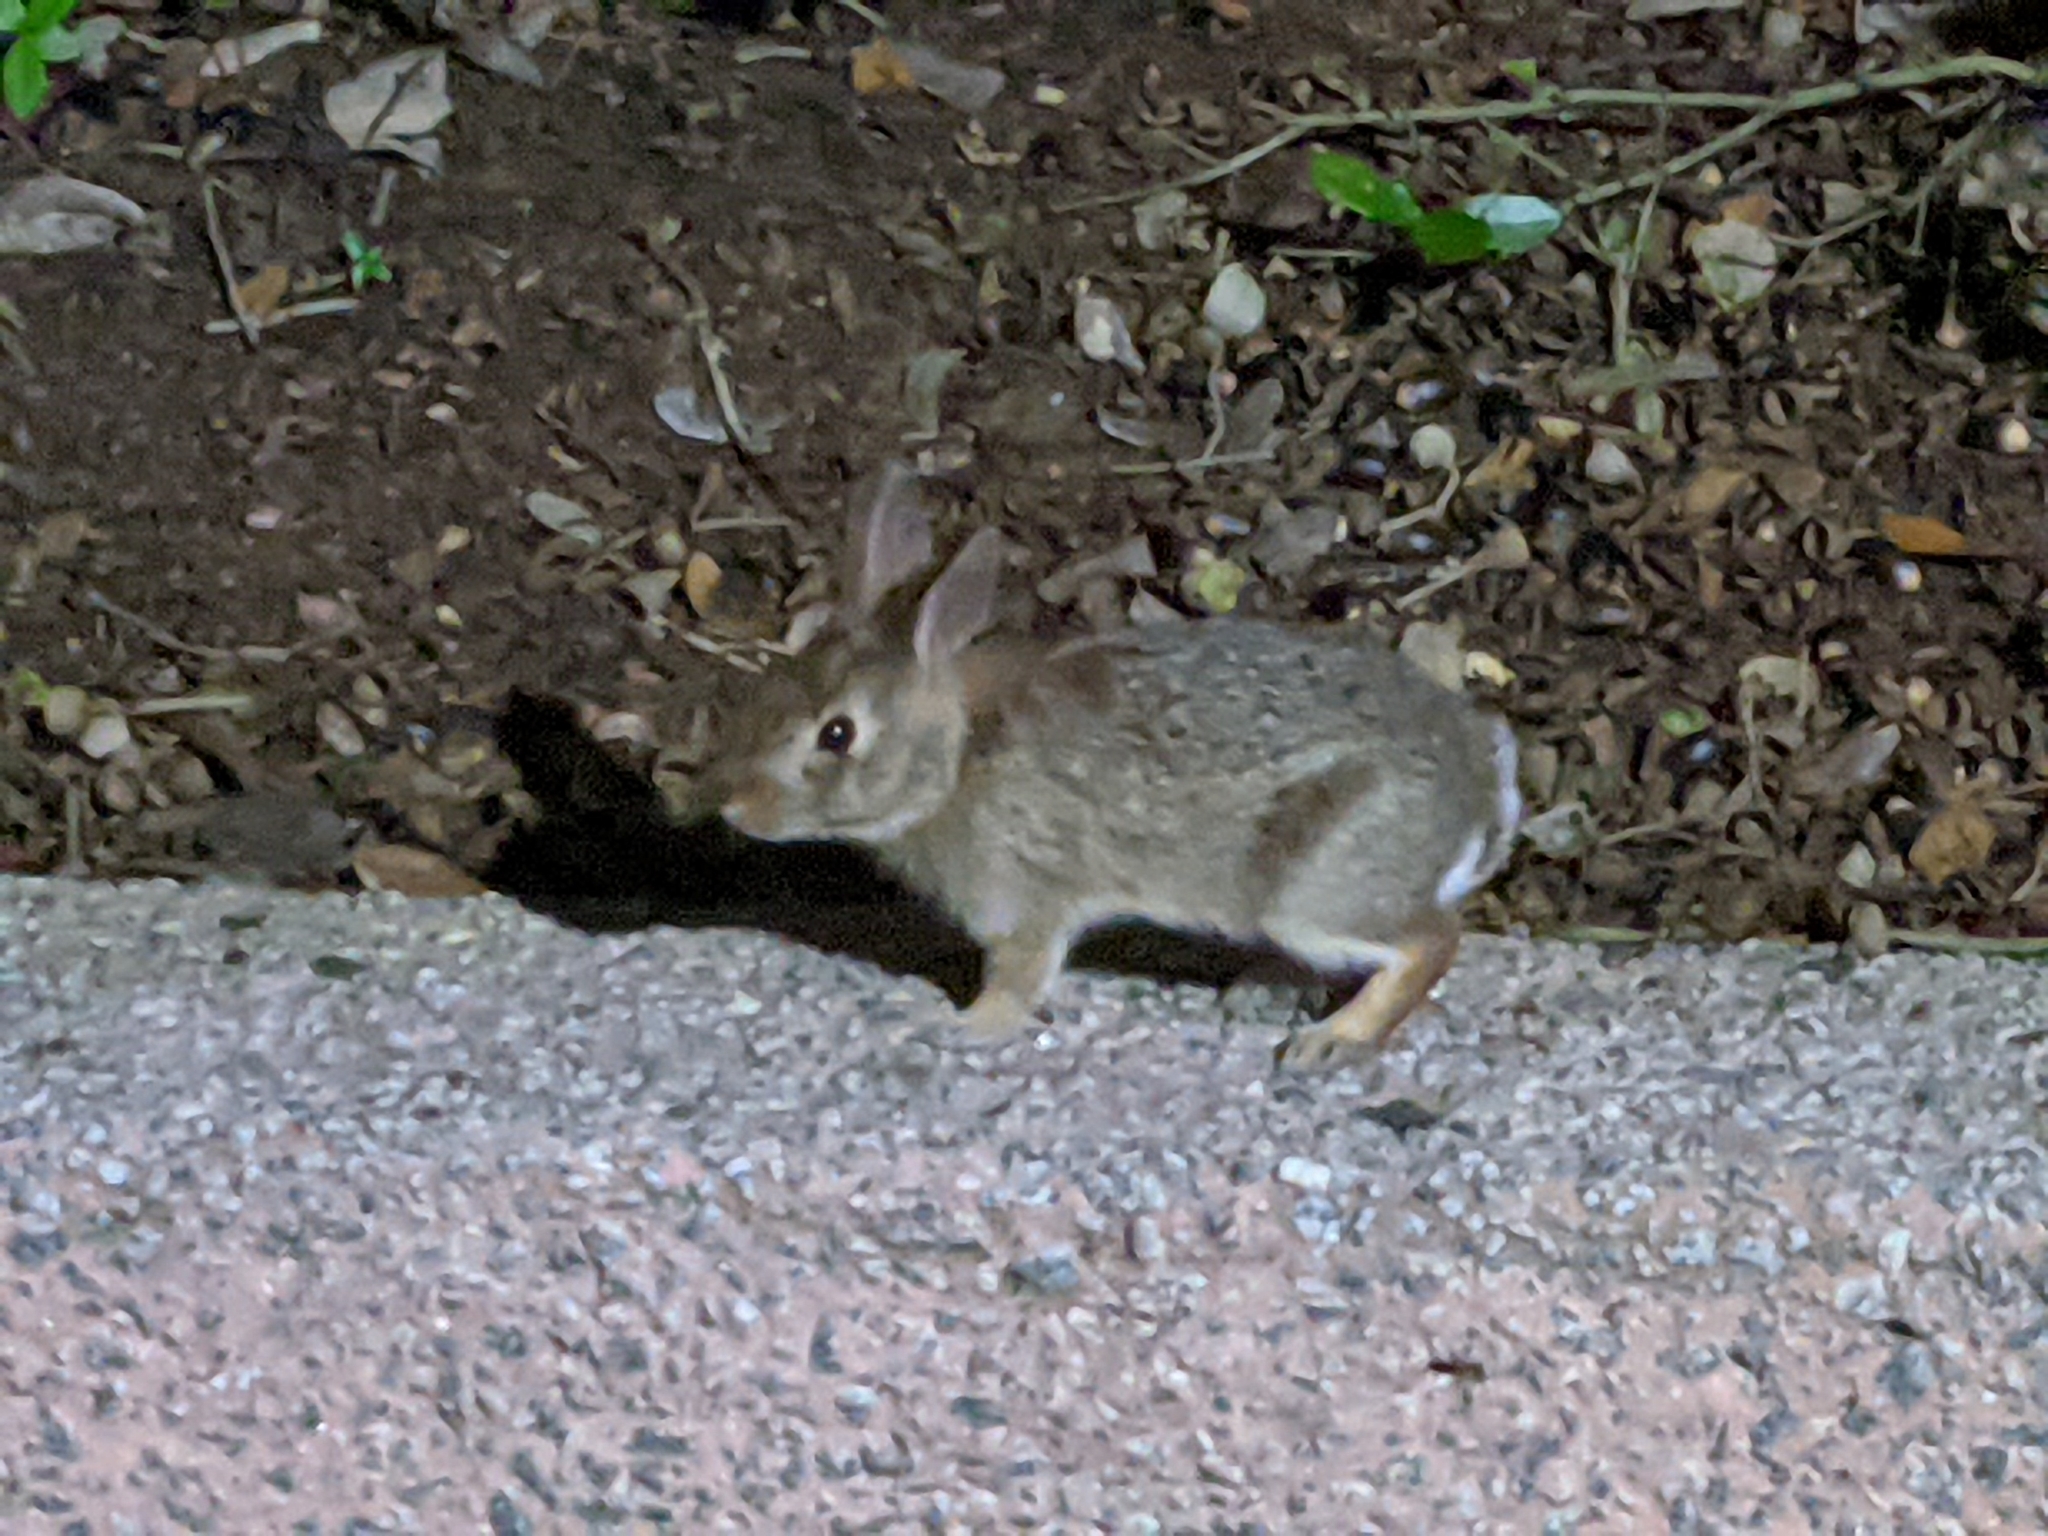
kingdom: Animalia
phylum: Chordata
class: Mammalia
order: Lagomorpha
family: Leporidae
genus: Sylvilagus
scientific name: Sylvilagus floridanus
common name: Eastern cottontail
